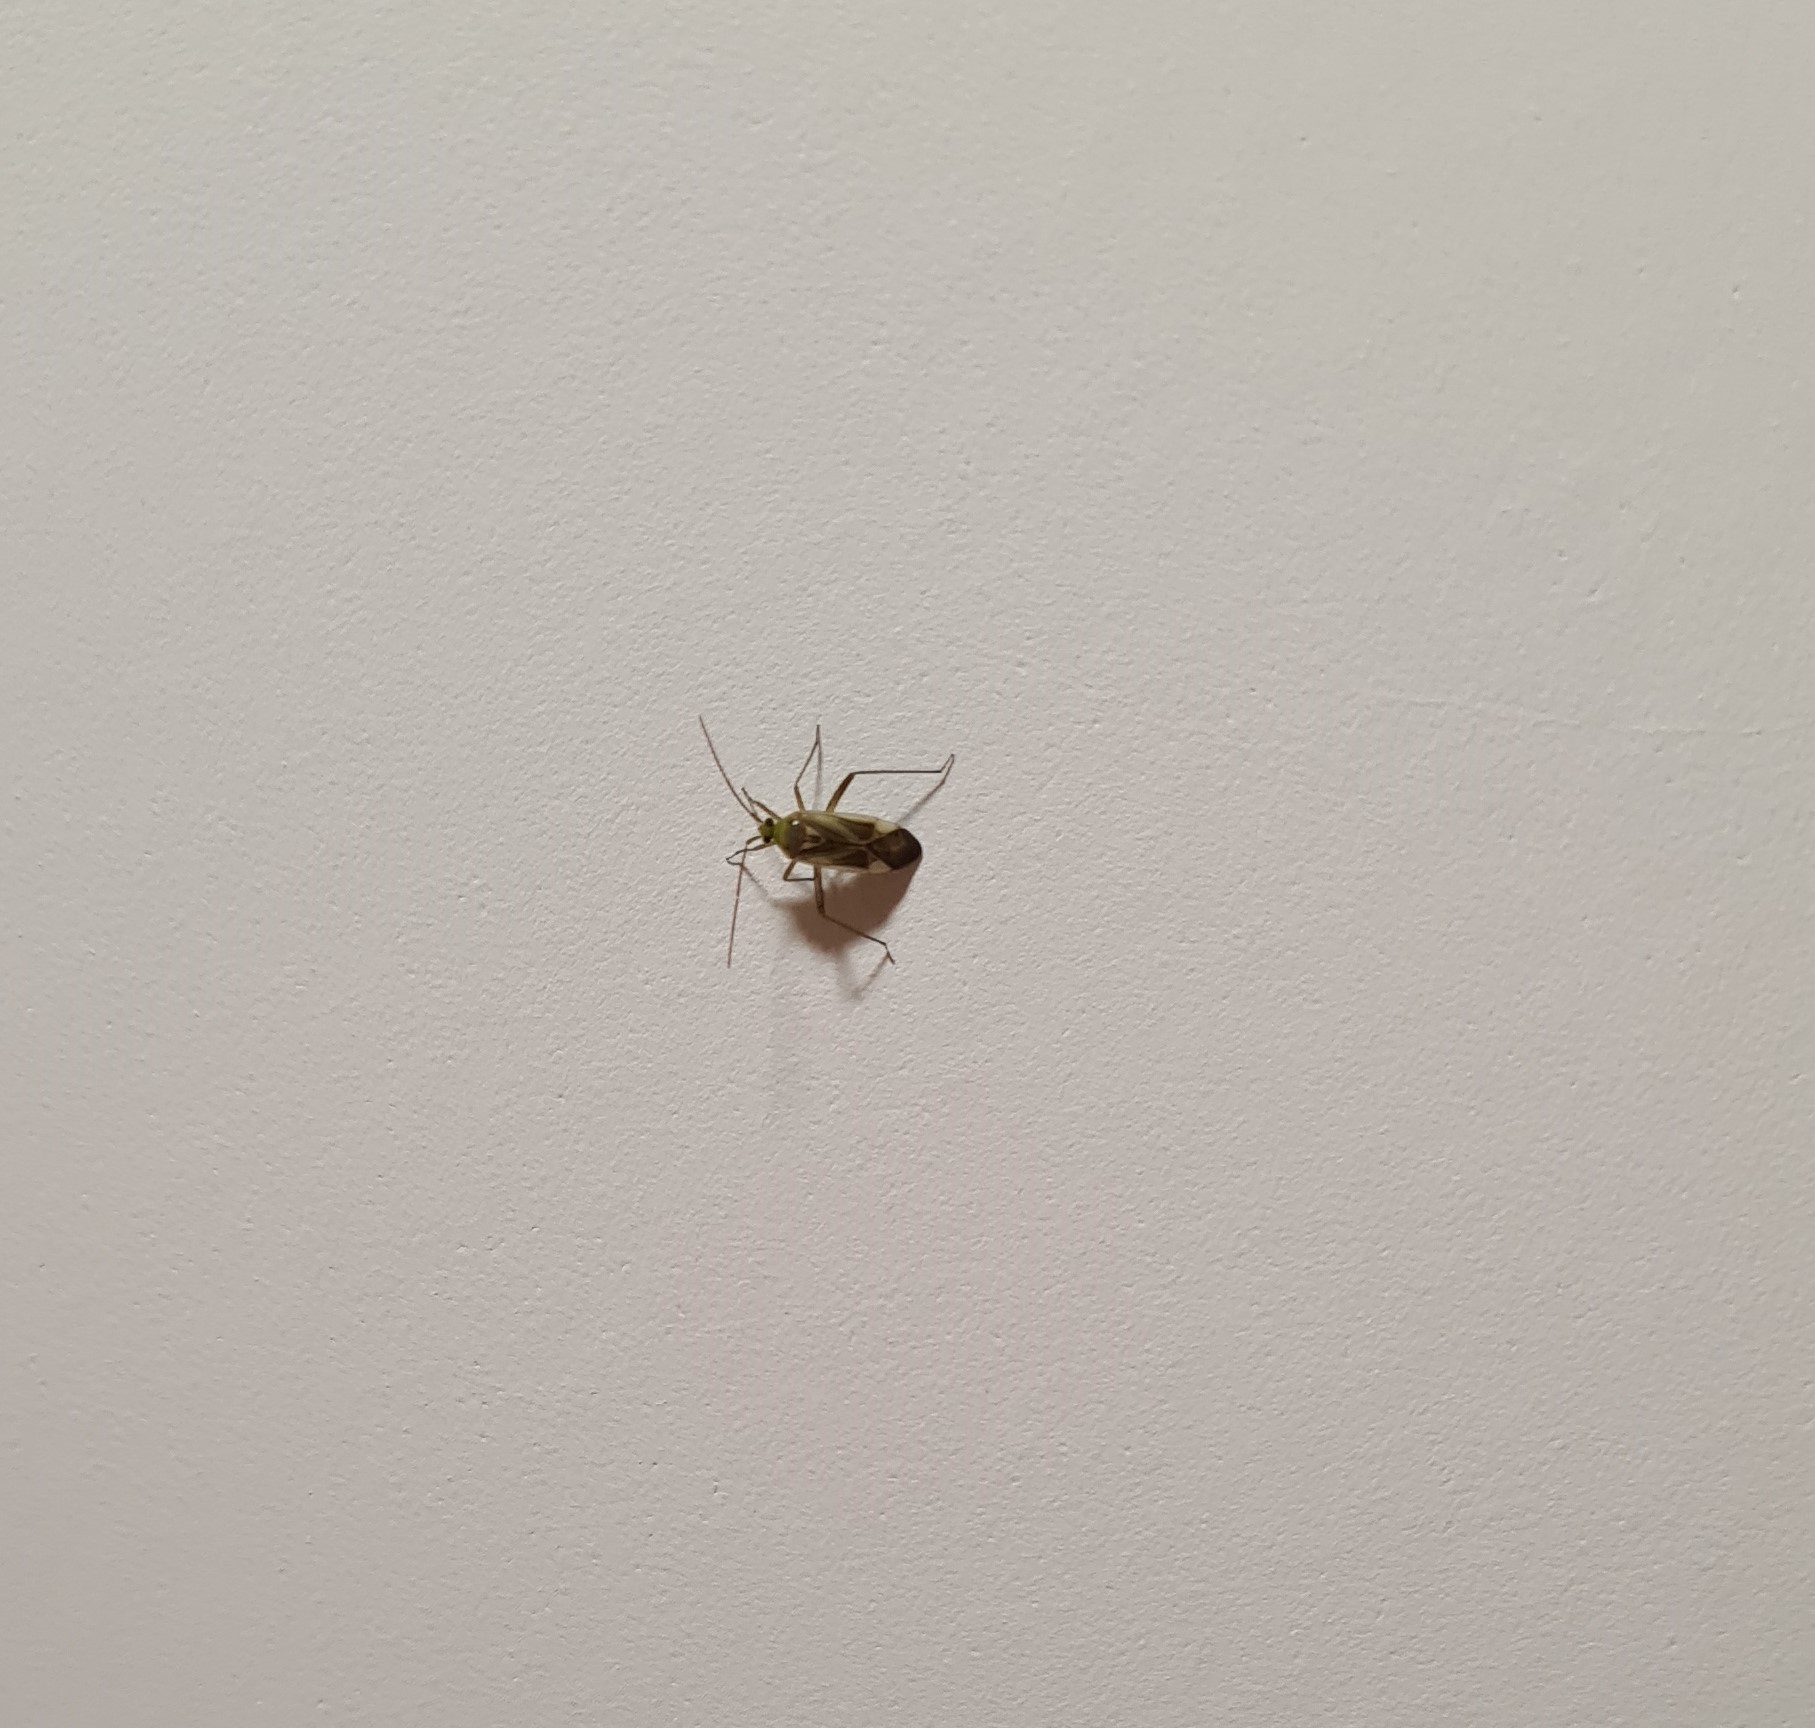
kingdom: Animalia
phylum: Arthropoda
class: Insecta
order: Hemiptera
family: Miridae
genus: Adelphocoris
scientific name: Adelphocoris lineolatus
